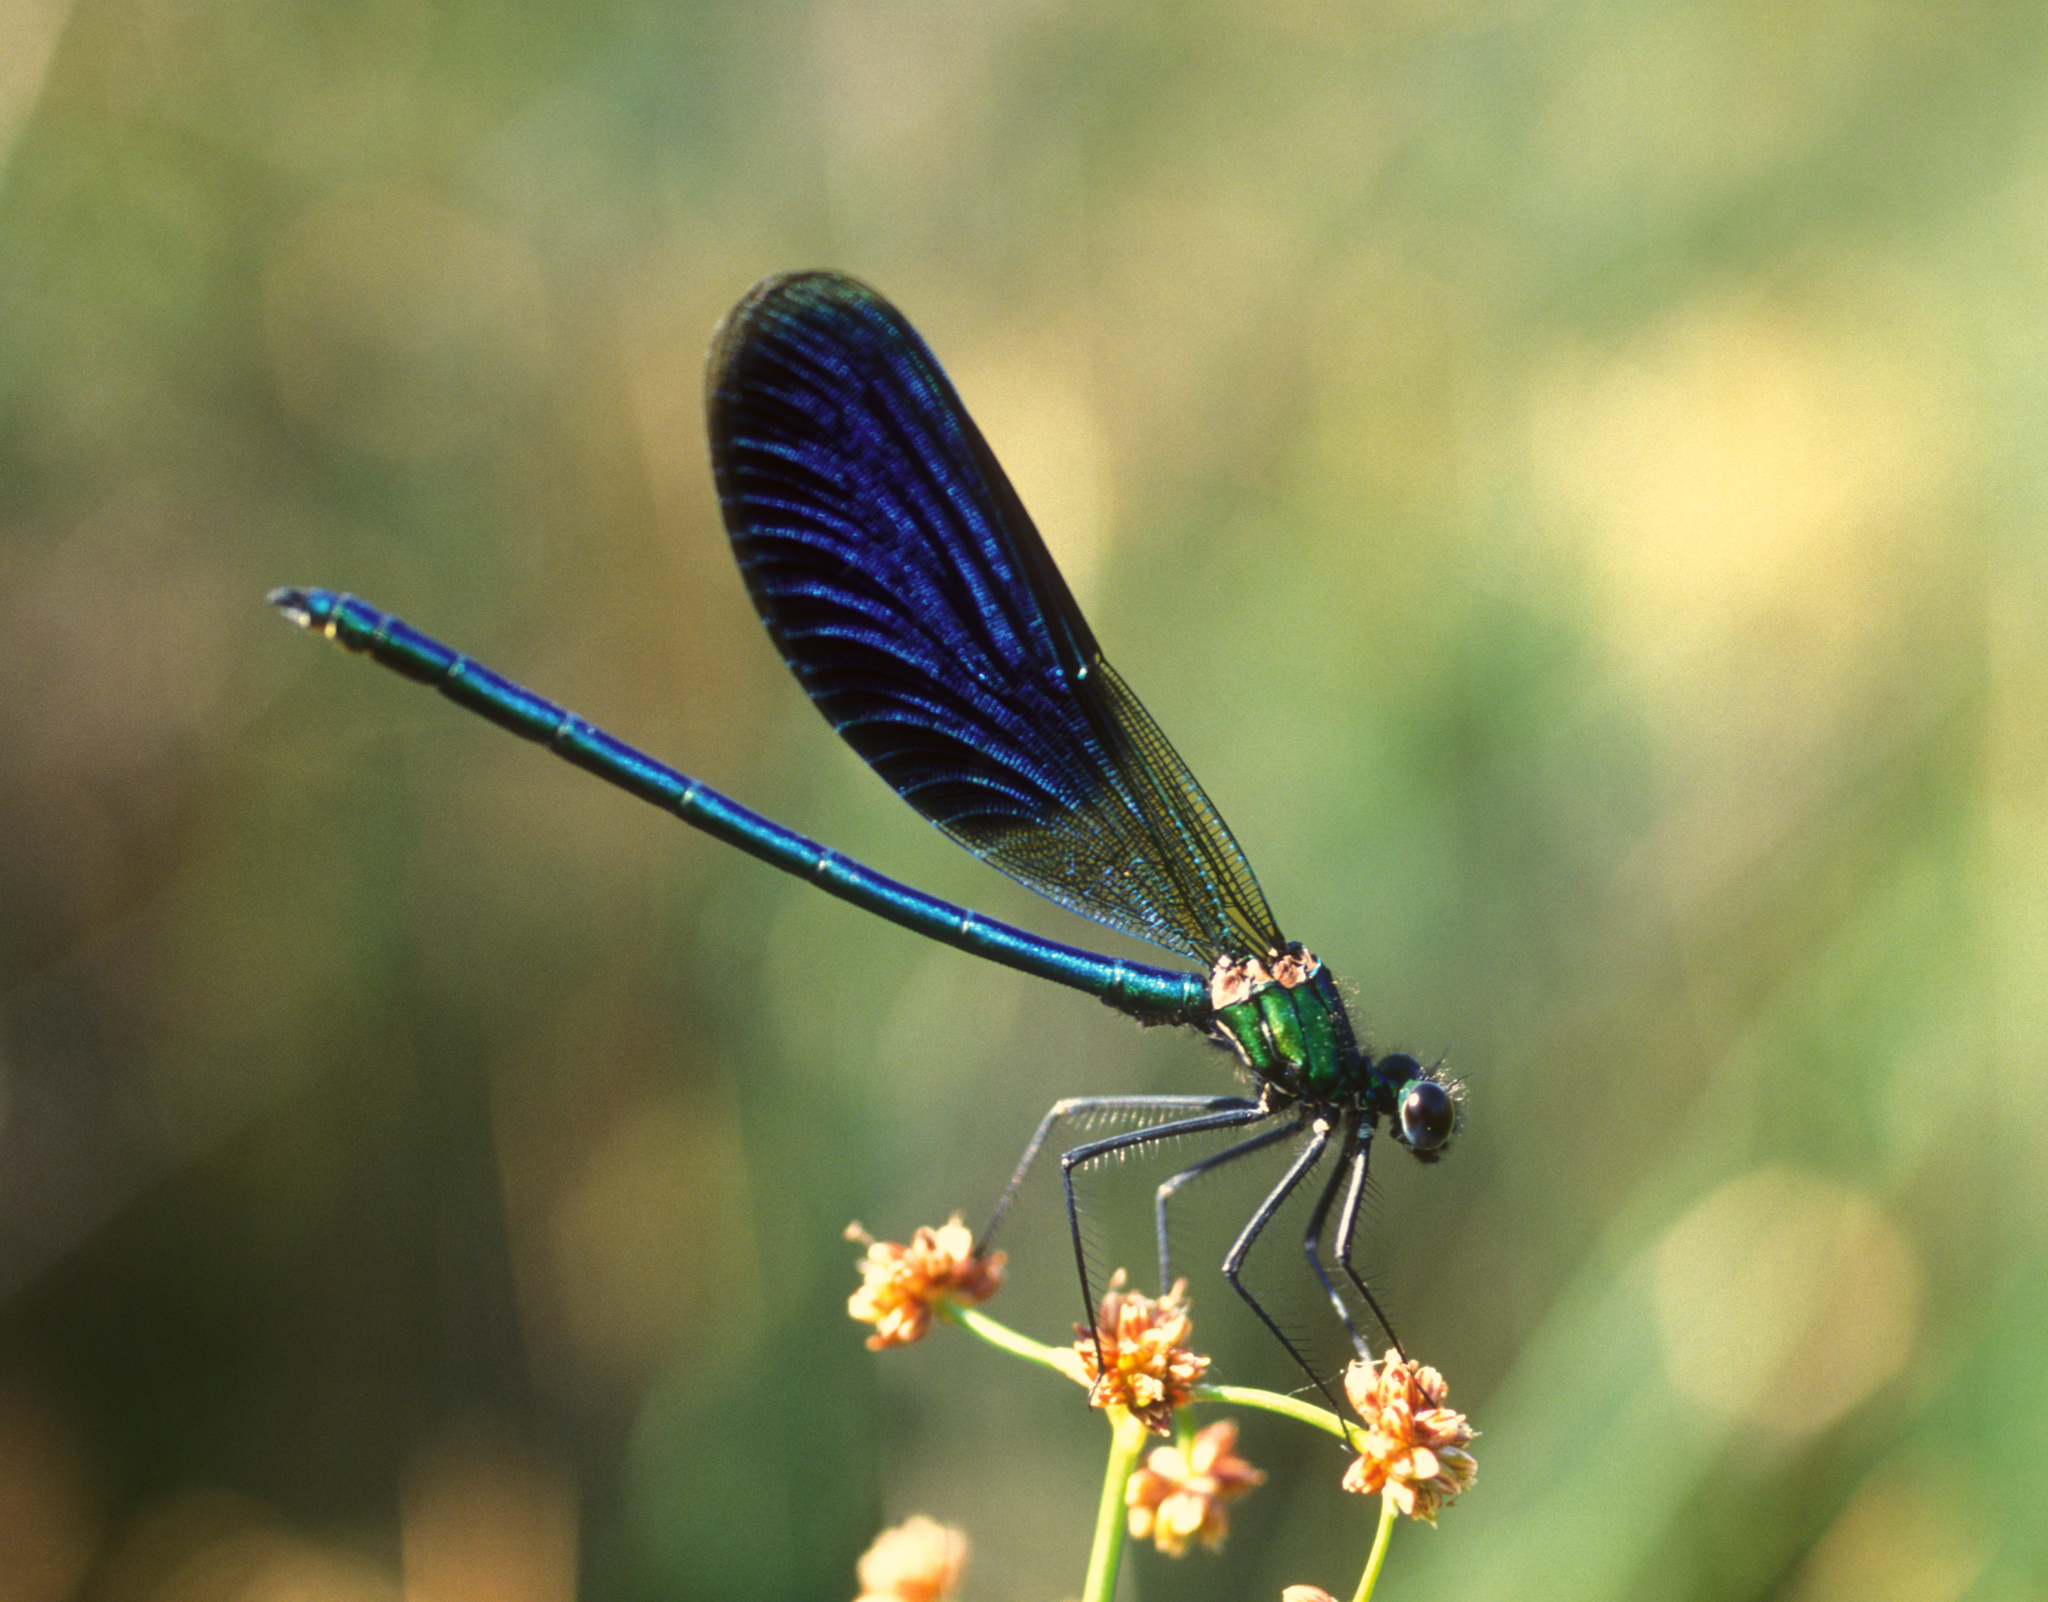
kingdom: Animalia
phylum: Arthropoda
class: Insecta
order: Odonata
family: Calopterygidae
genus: Calopteryx
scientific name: Calopteryx splendens
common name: Banded demoiselle
